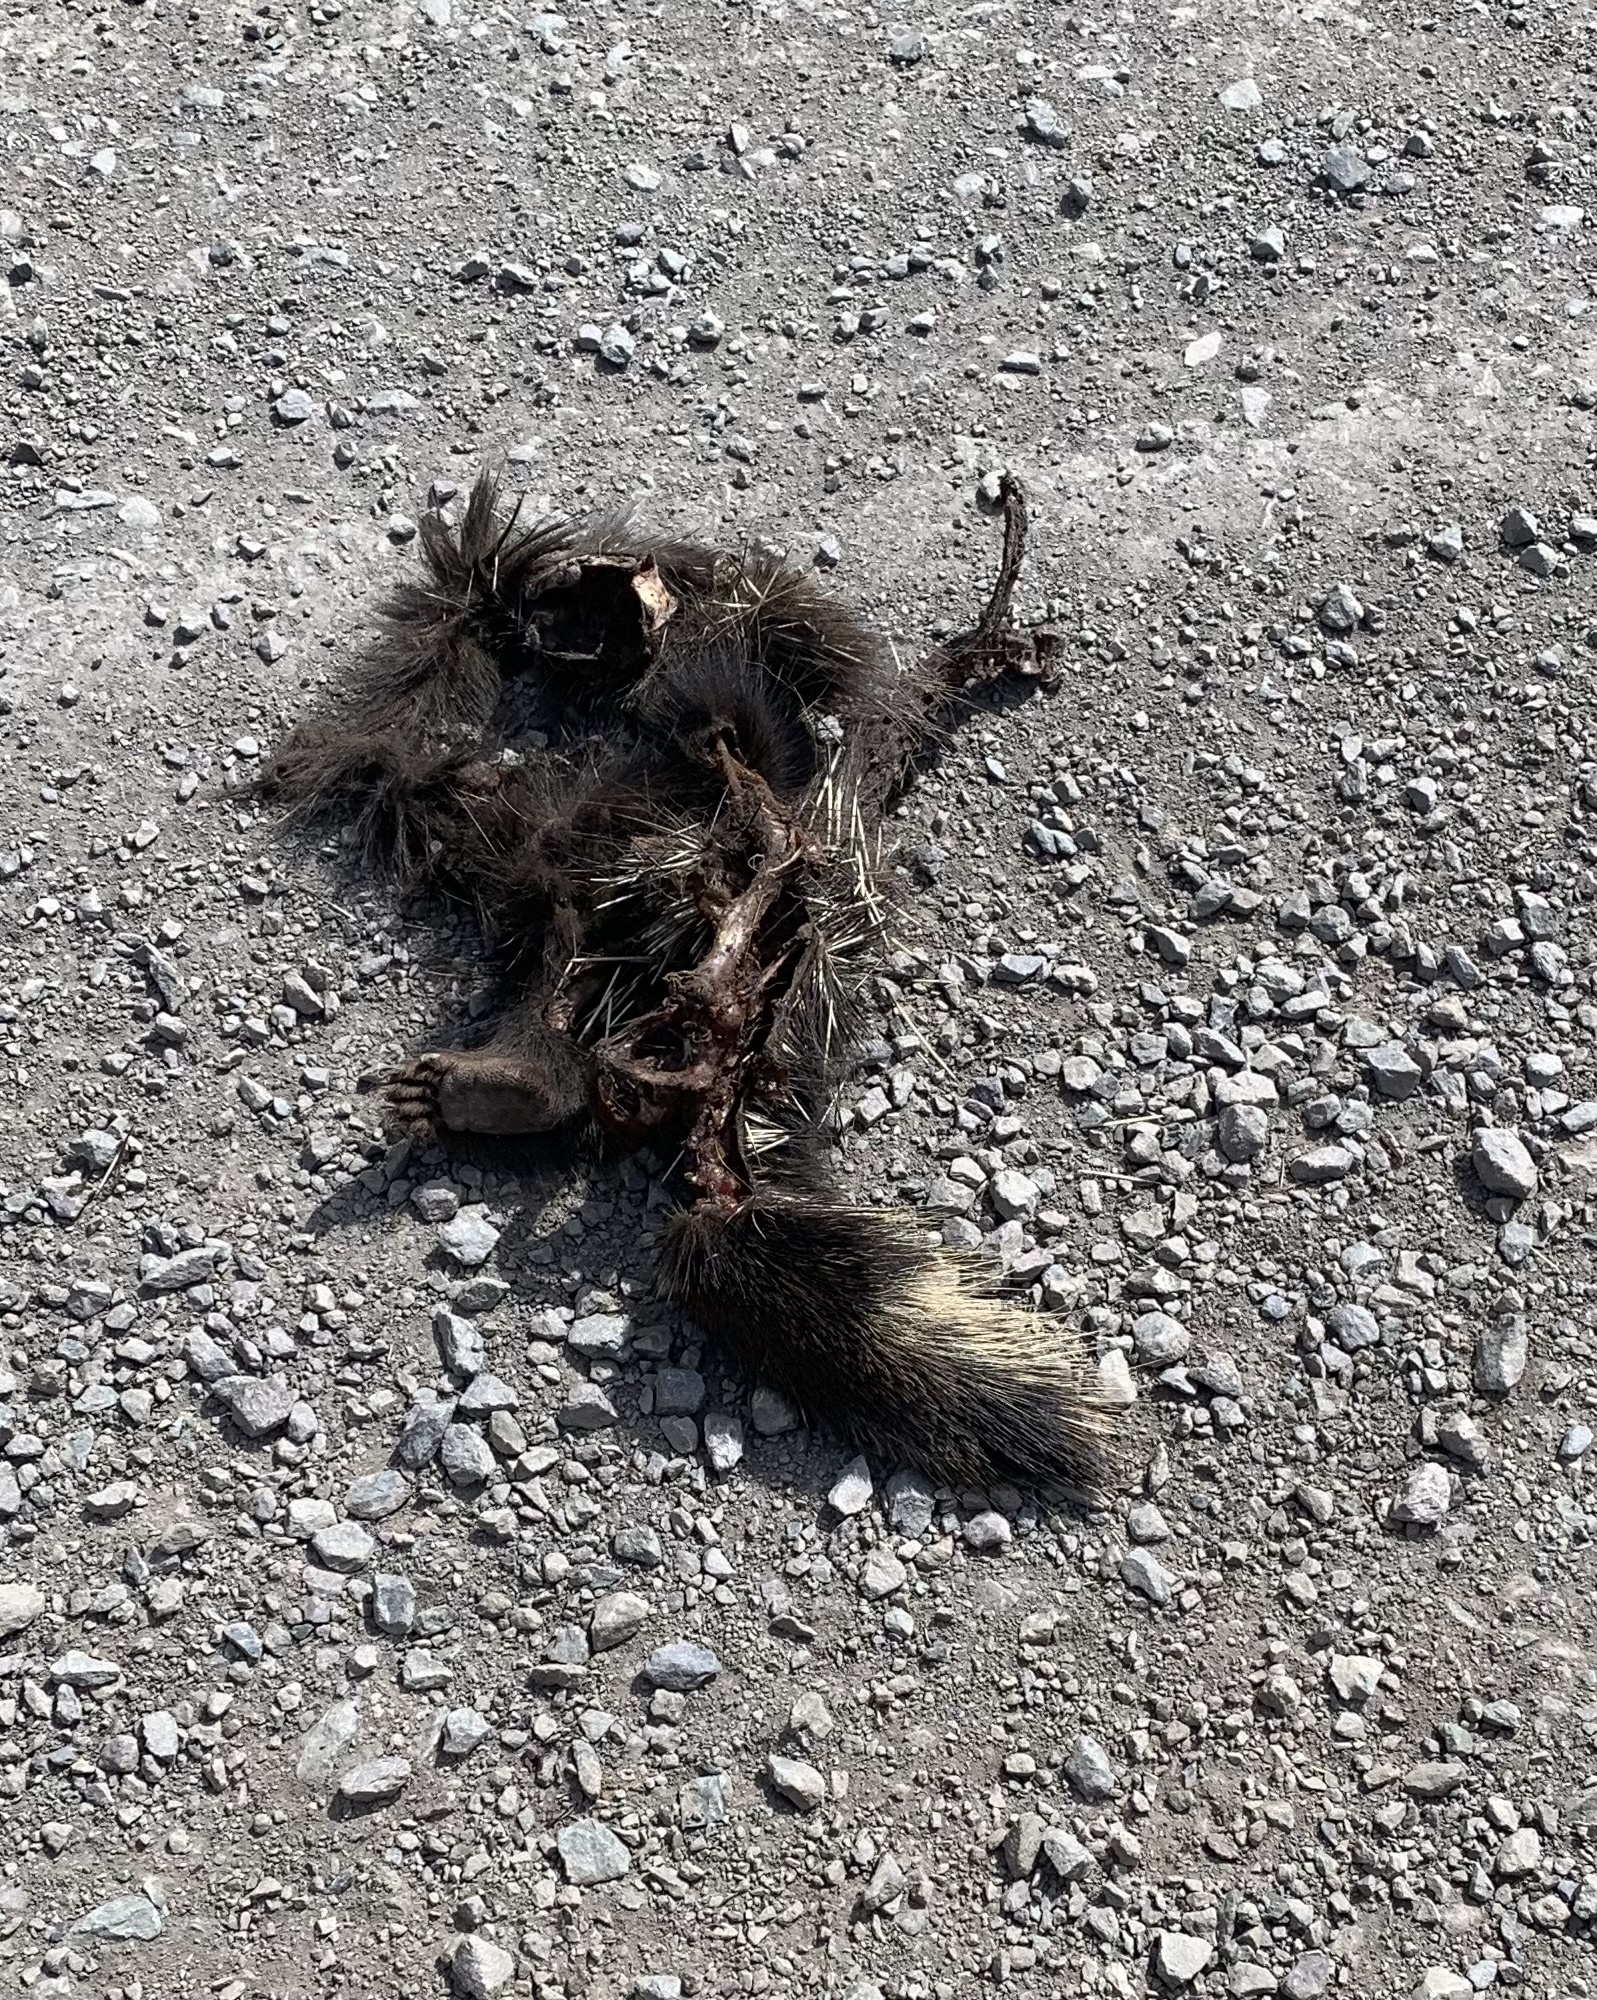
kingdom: Animalia
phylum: Chordata
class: Mammalia
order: Rodentia
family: Erethizontidae
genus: Erethizon
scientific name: Erethizon dorsatus
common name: North american porcupine
